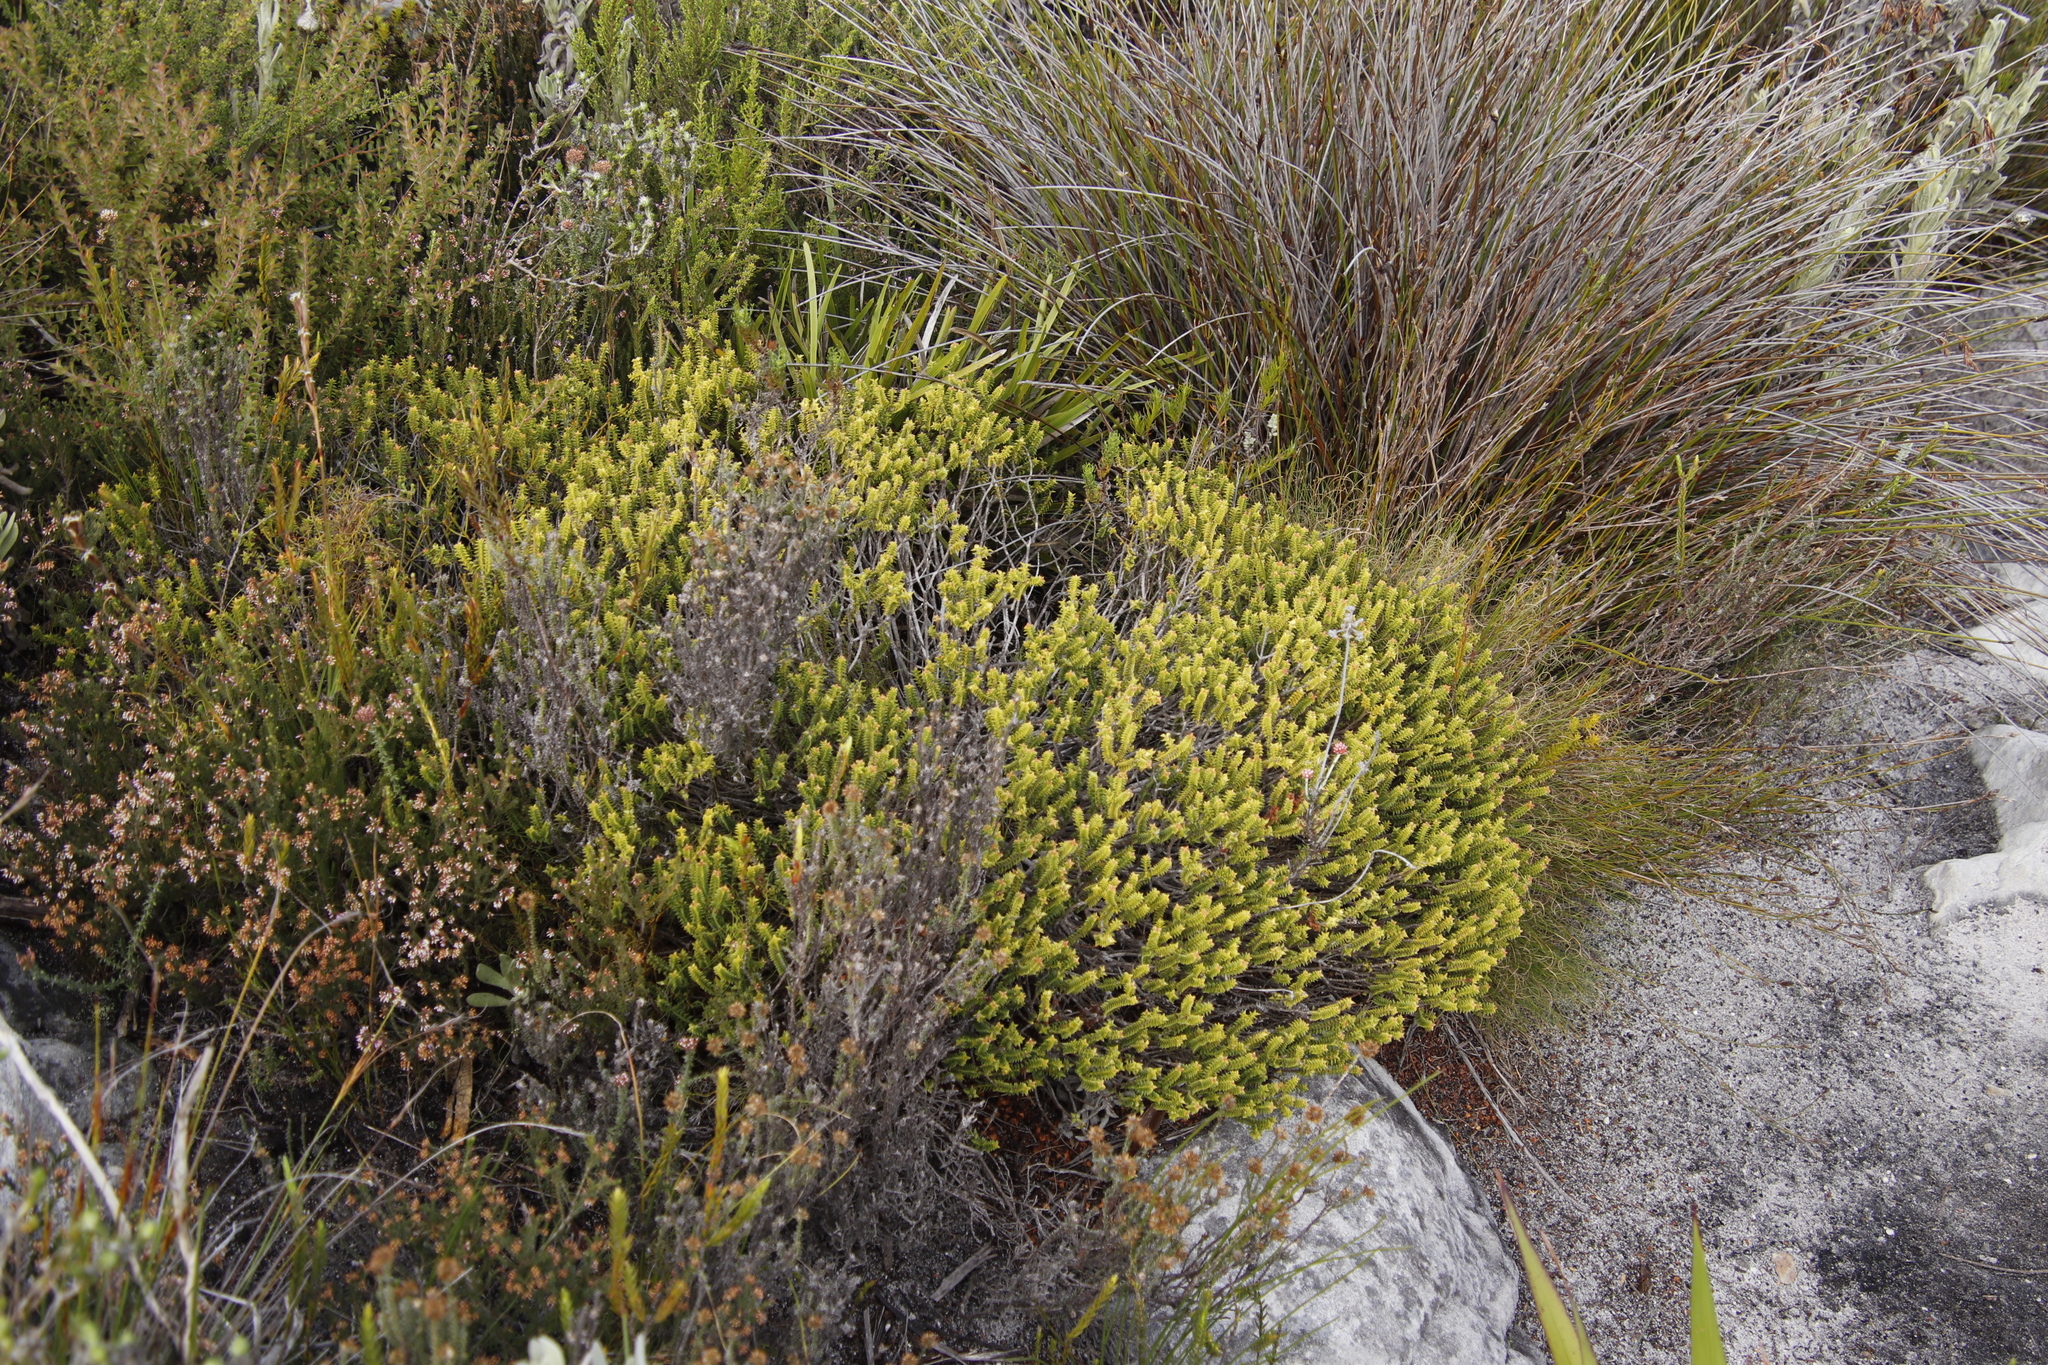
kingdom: Plantae
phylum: Tracheophyta
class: Magnoliopsida
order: Myrtales
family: Penaeaceae
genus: Penaea
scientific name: Penaea mucronata
